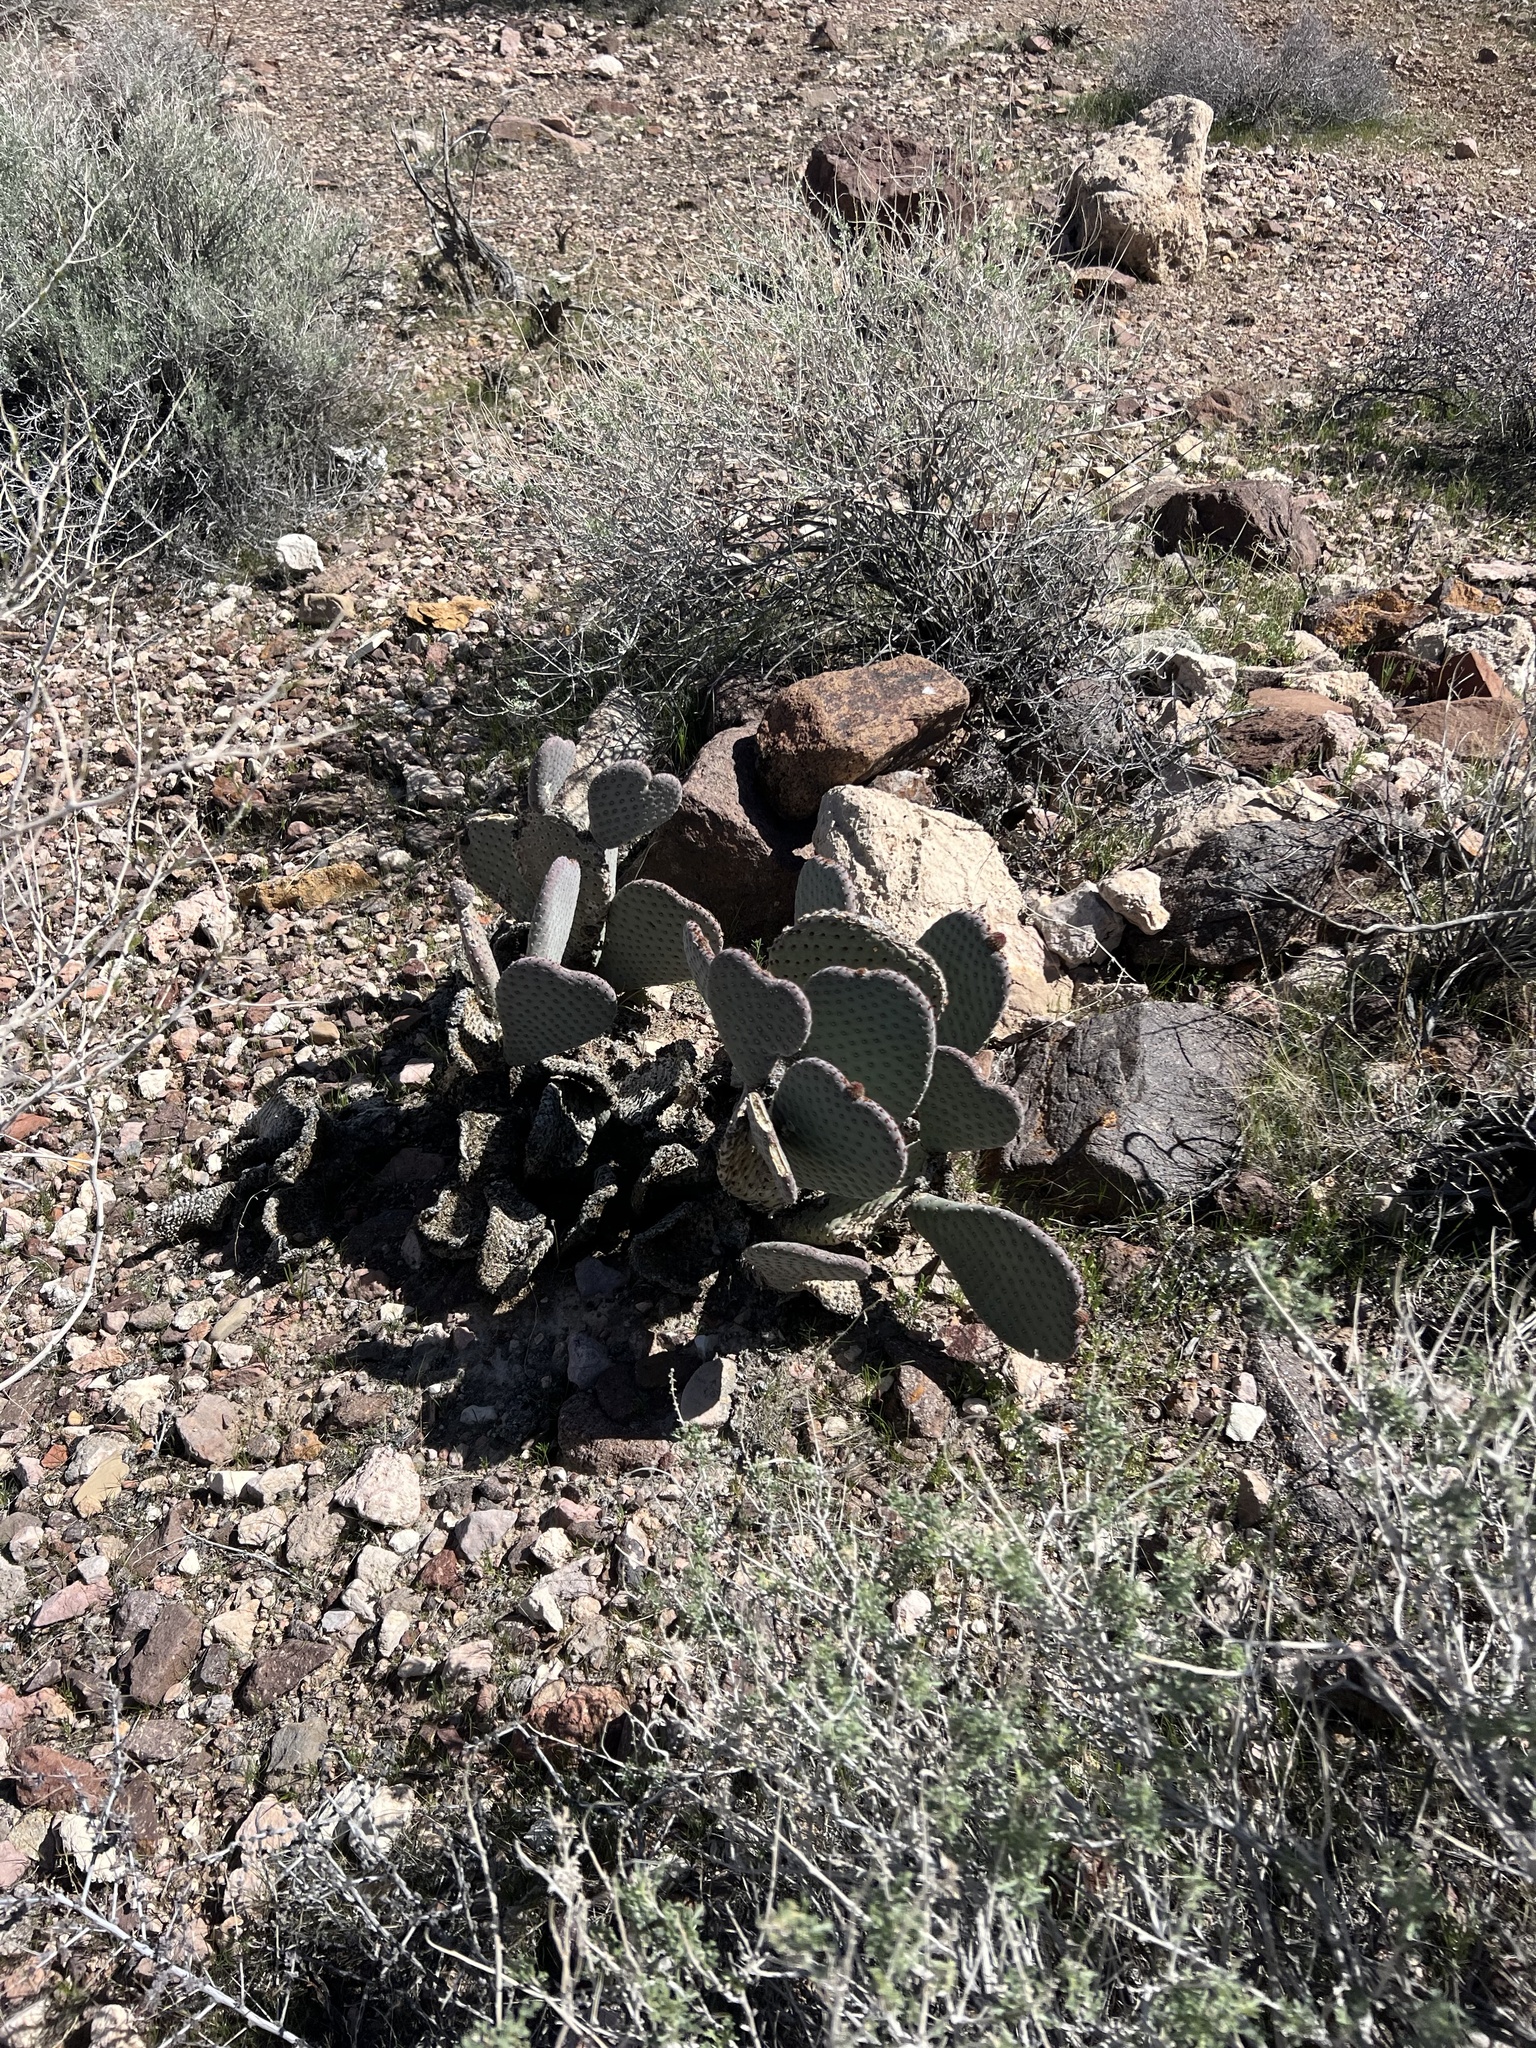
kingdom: Plantae
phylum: Tracheophyta
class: Magnoliopsida
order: Caryophyllales
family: Cactaceae
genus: Opuntia
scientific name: Opuntia basilaris
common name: Beavertail prickly-pear
